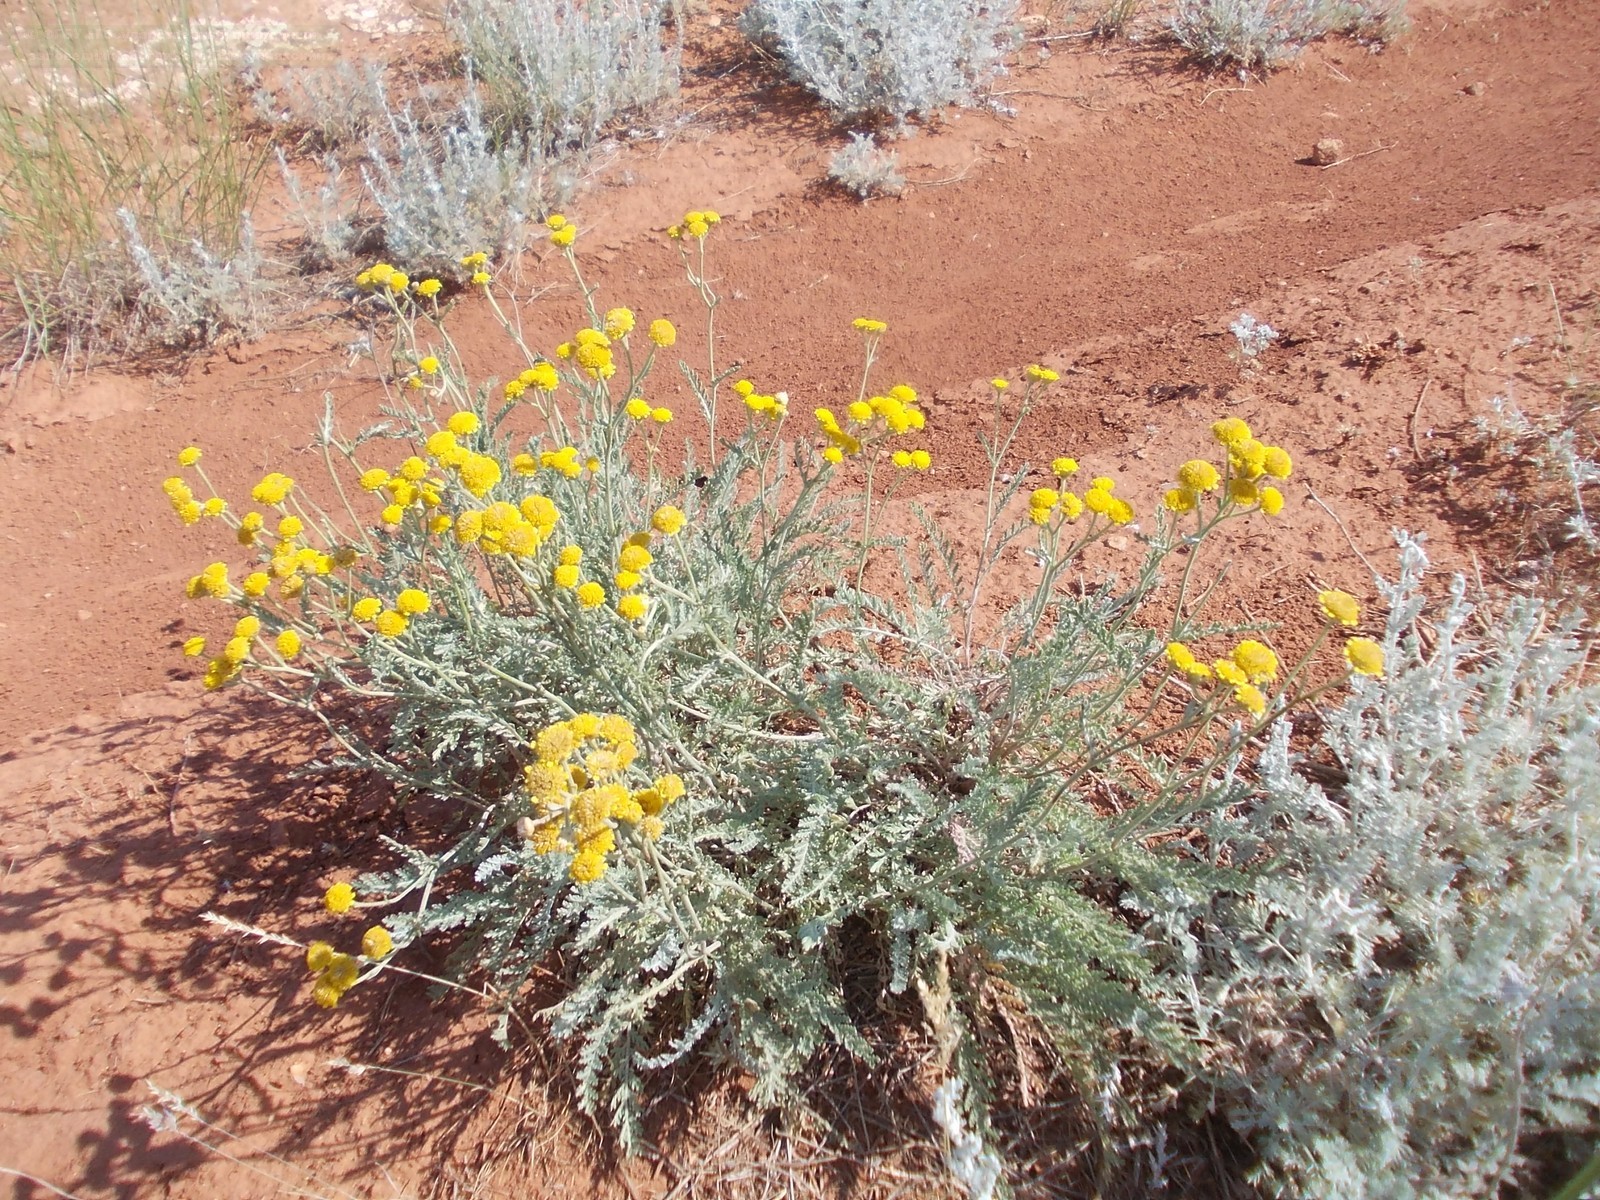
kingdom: Plantae
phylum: Tracheophyta
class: Magnoliopsida
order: Asterales
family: Asteraceae
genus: Tanacetum
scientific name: Tanacetum achilleifolium
